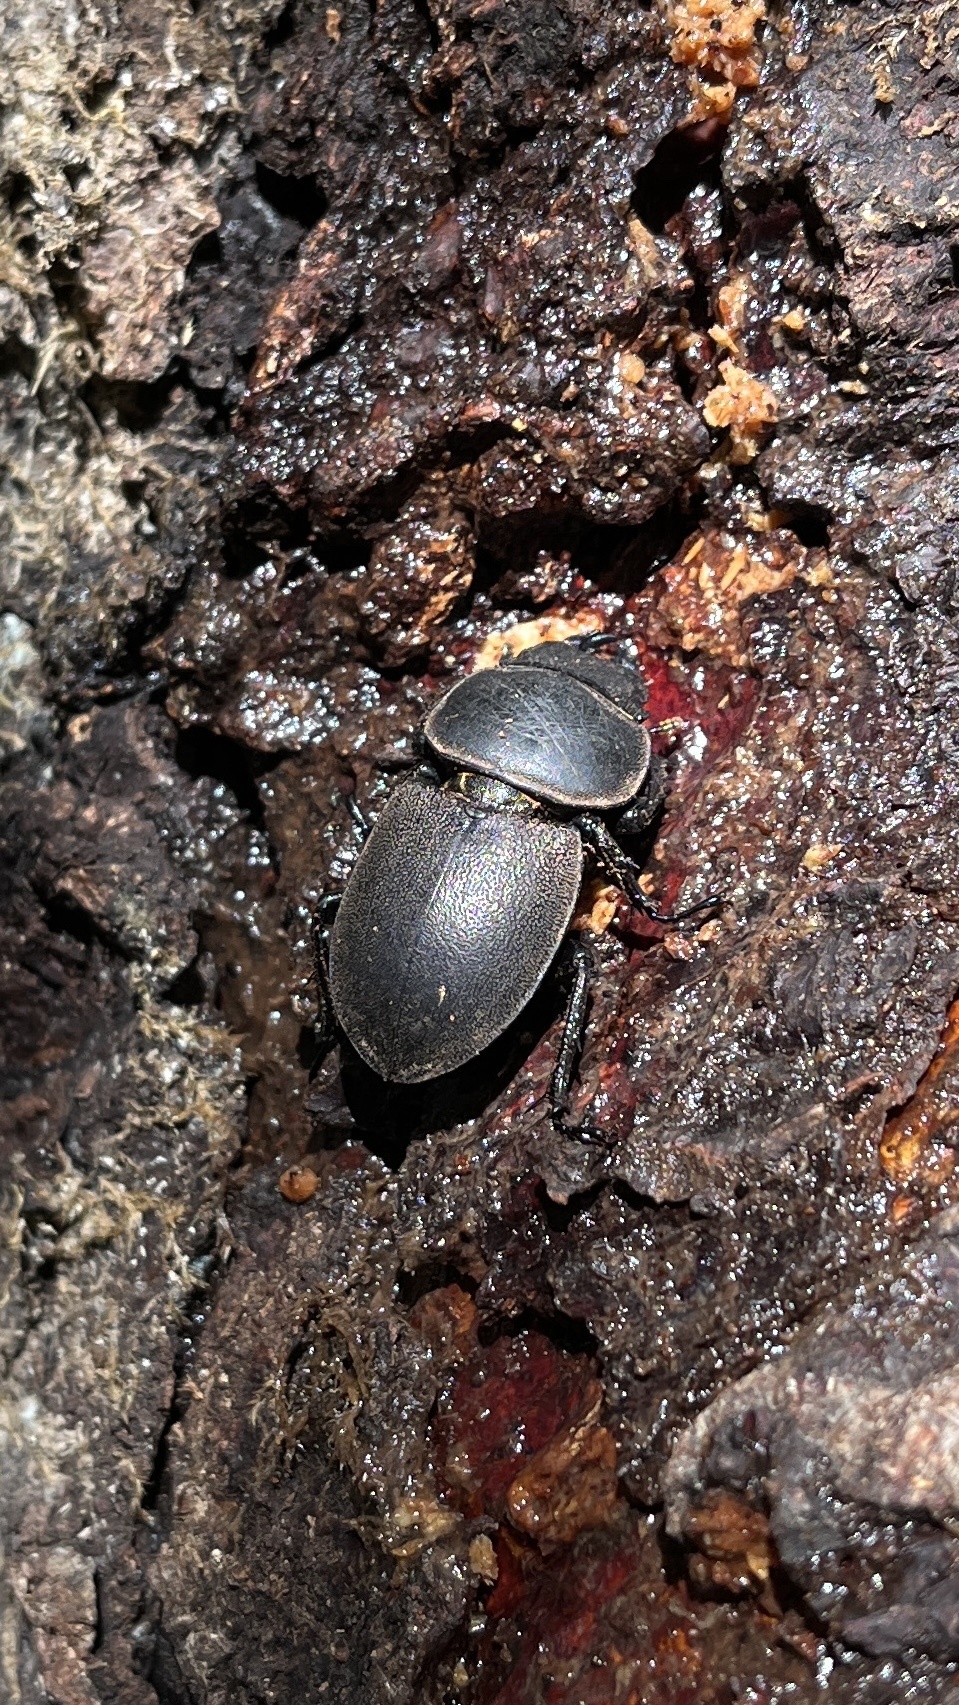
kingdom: Animalia
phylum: Arthropoda
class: Insecta
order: Coleoptera
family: Lucanidae
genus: Apterodorcus
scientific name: Apterodorcus bacchus
